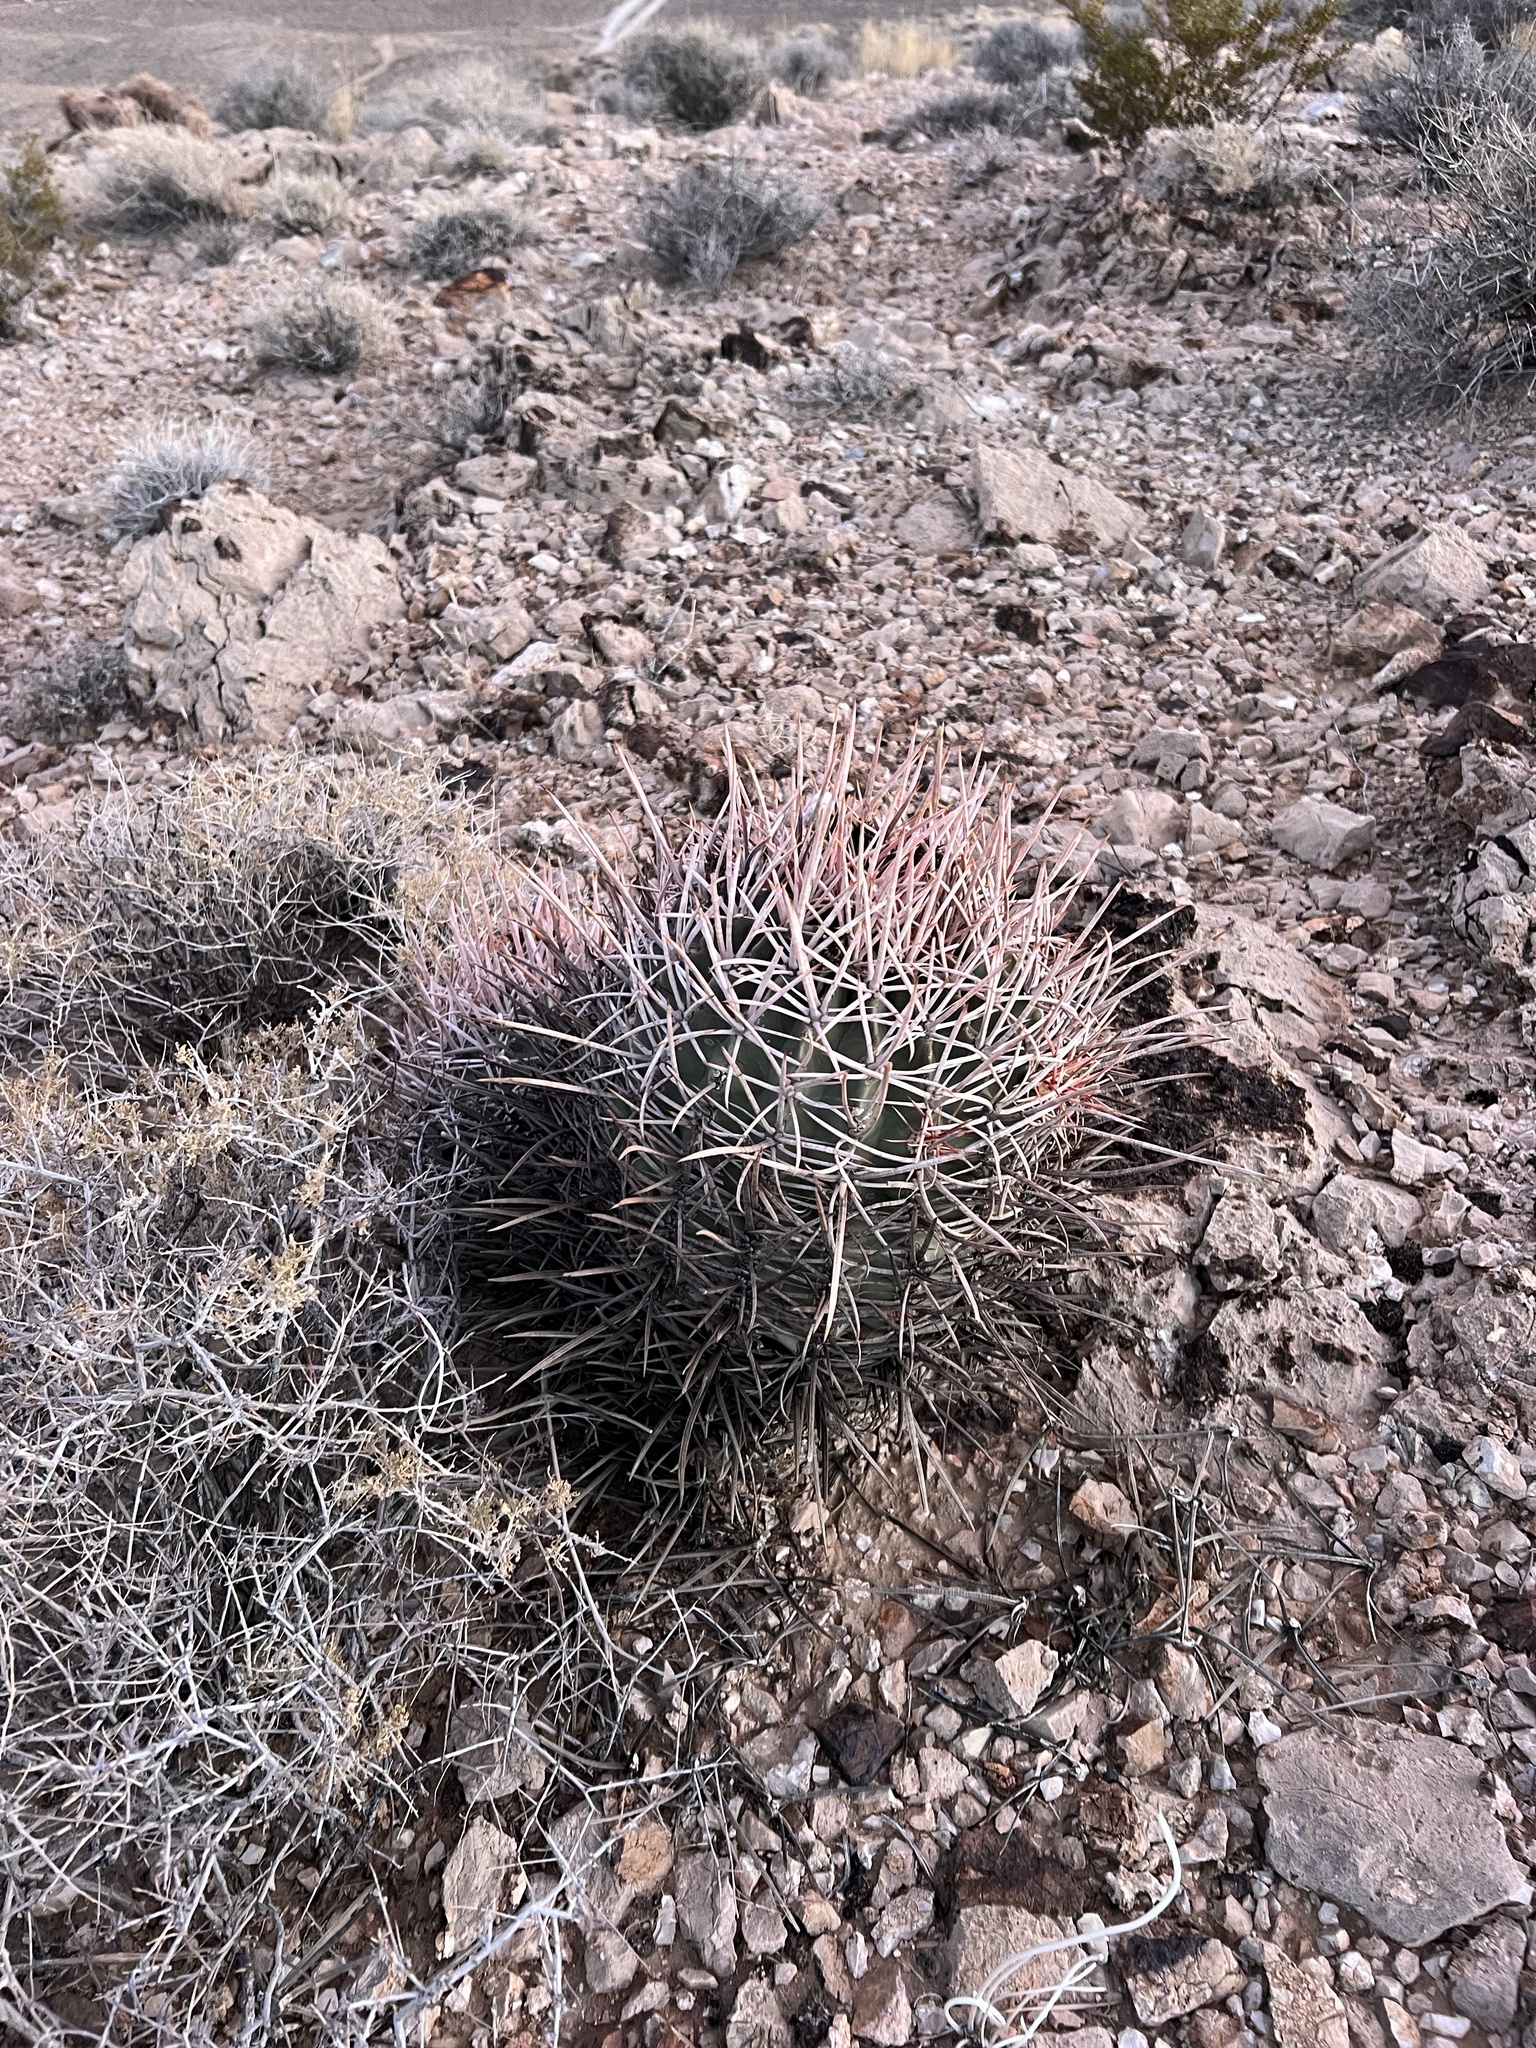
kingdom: Plantae
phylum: Tracheophyta
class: Magnoliopsida
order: Caryophyllales
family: Cactaceae
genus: Echinocactus
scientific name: Echinocactus polycephalus
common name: Cottontop cactus
